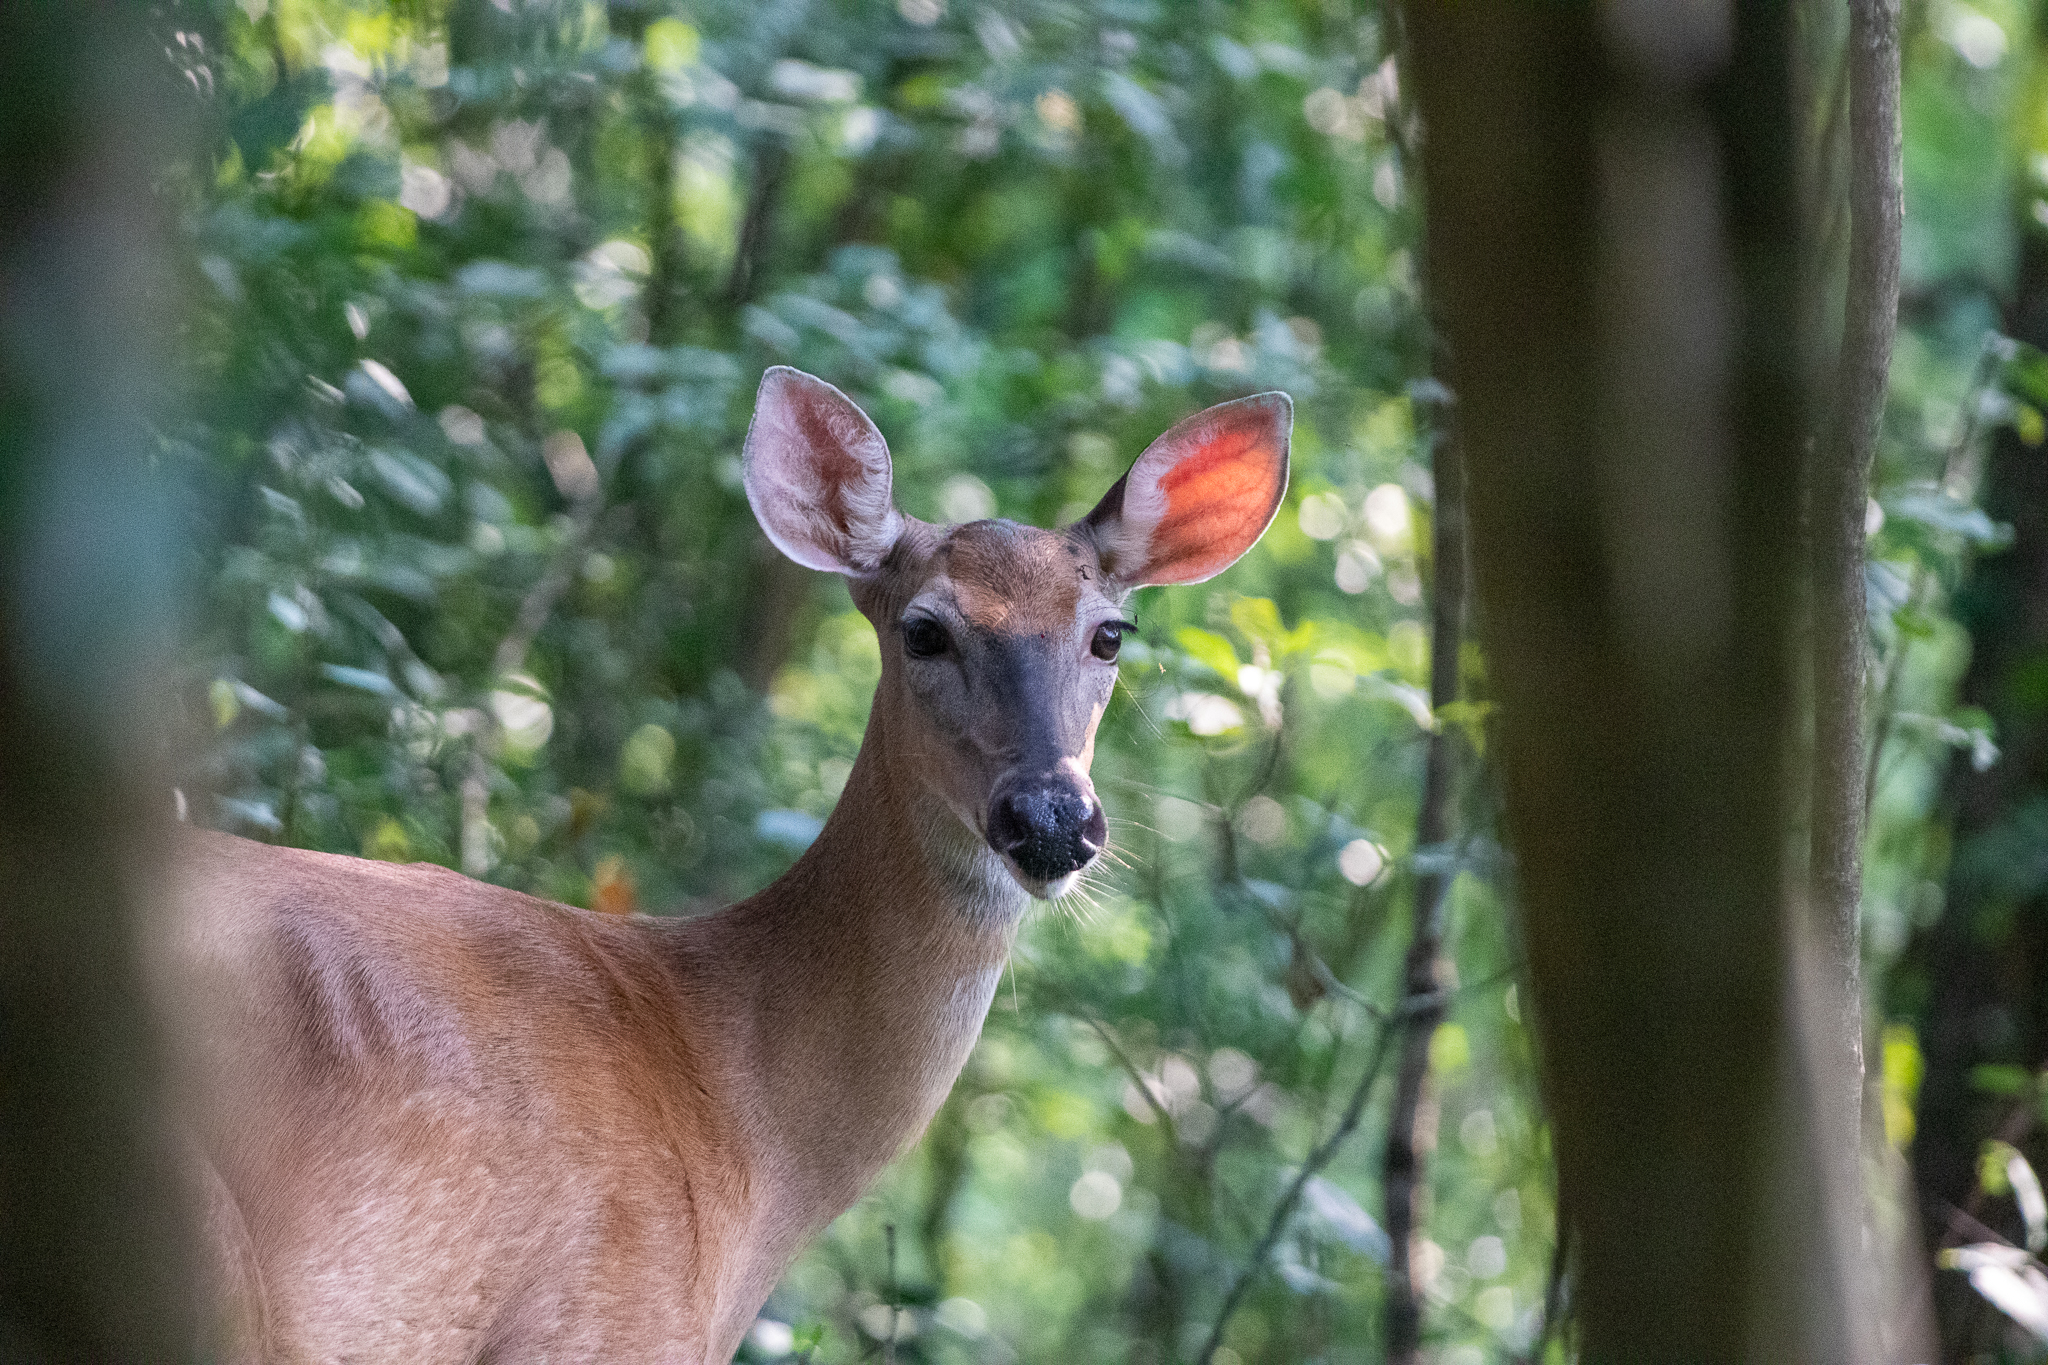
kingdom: Animalia
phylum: Chordata
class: Mammalia
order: Artiodactyla
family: Cervidae
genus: Odocoileus
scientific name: Odocoileus virginianus
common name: White-tailed deer
